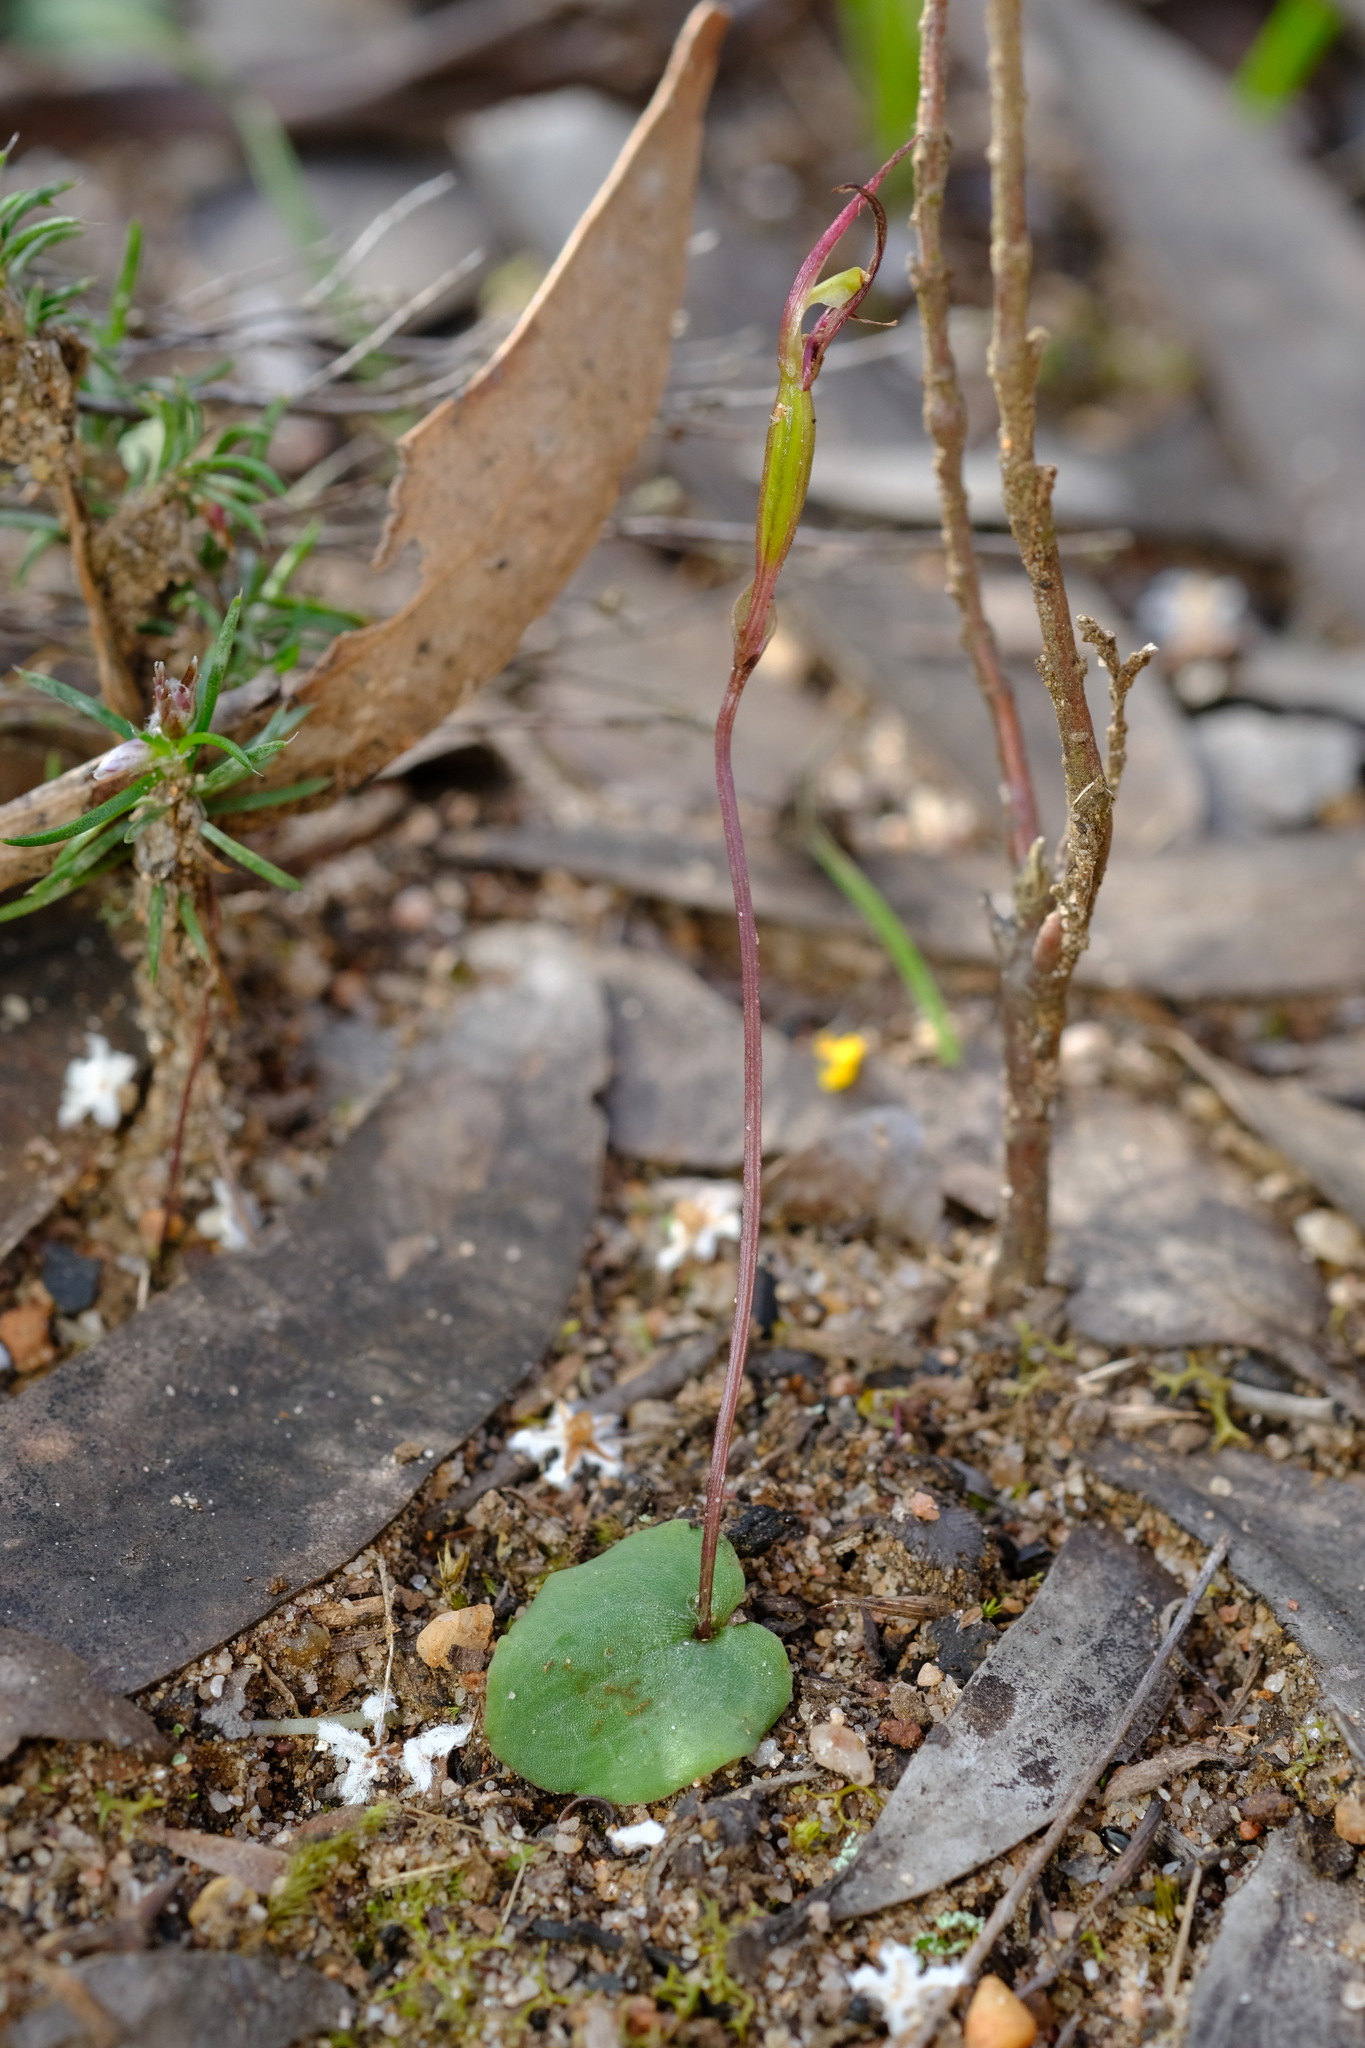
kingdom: Plantae
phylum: Tracheophyta
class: Liliopsida
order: Asparagales
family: Orchidaceae
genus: Cyrtostylis
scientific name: Cyrtostylis reniformis
